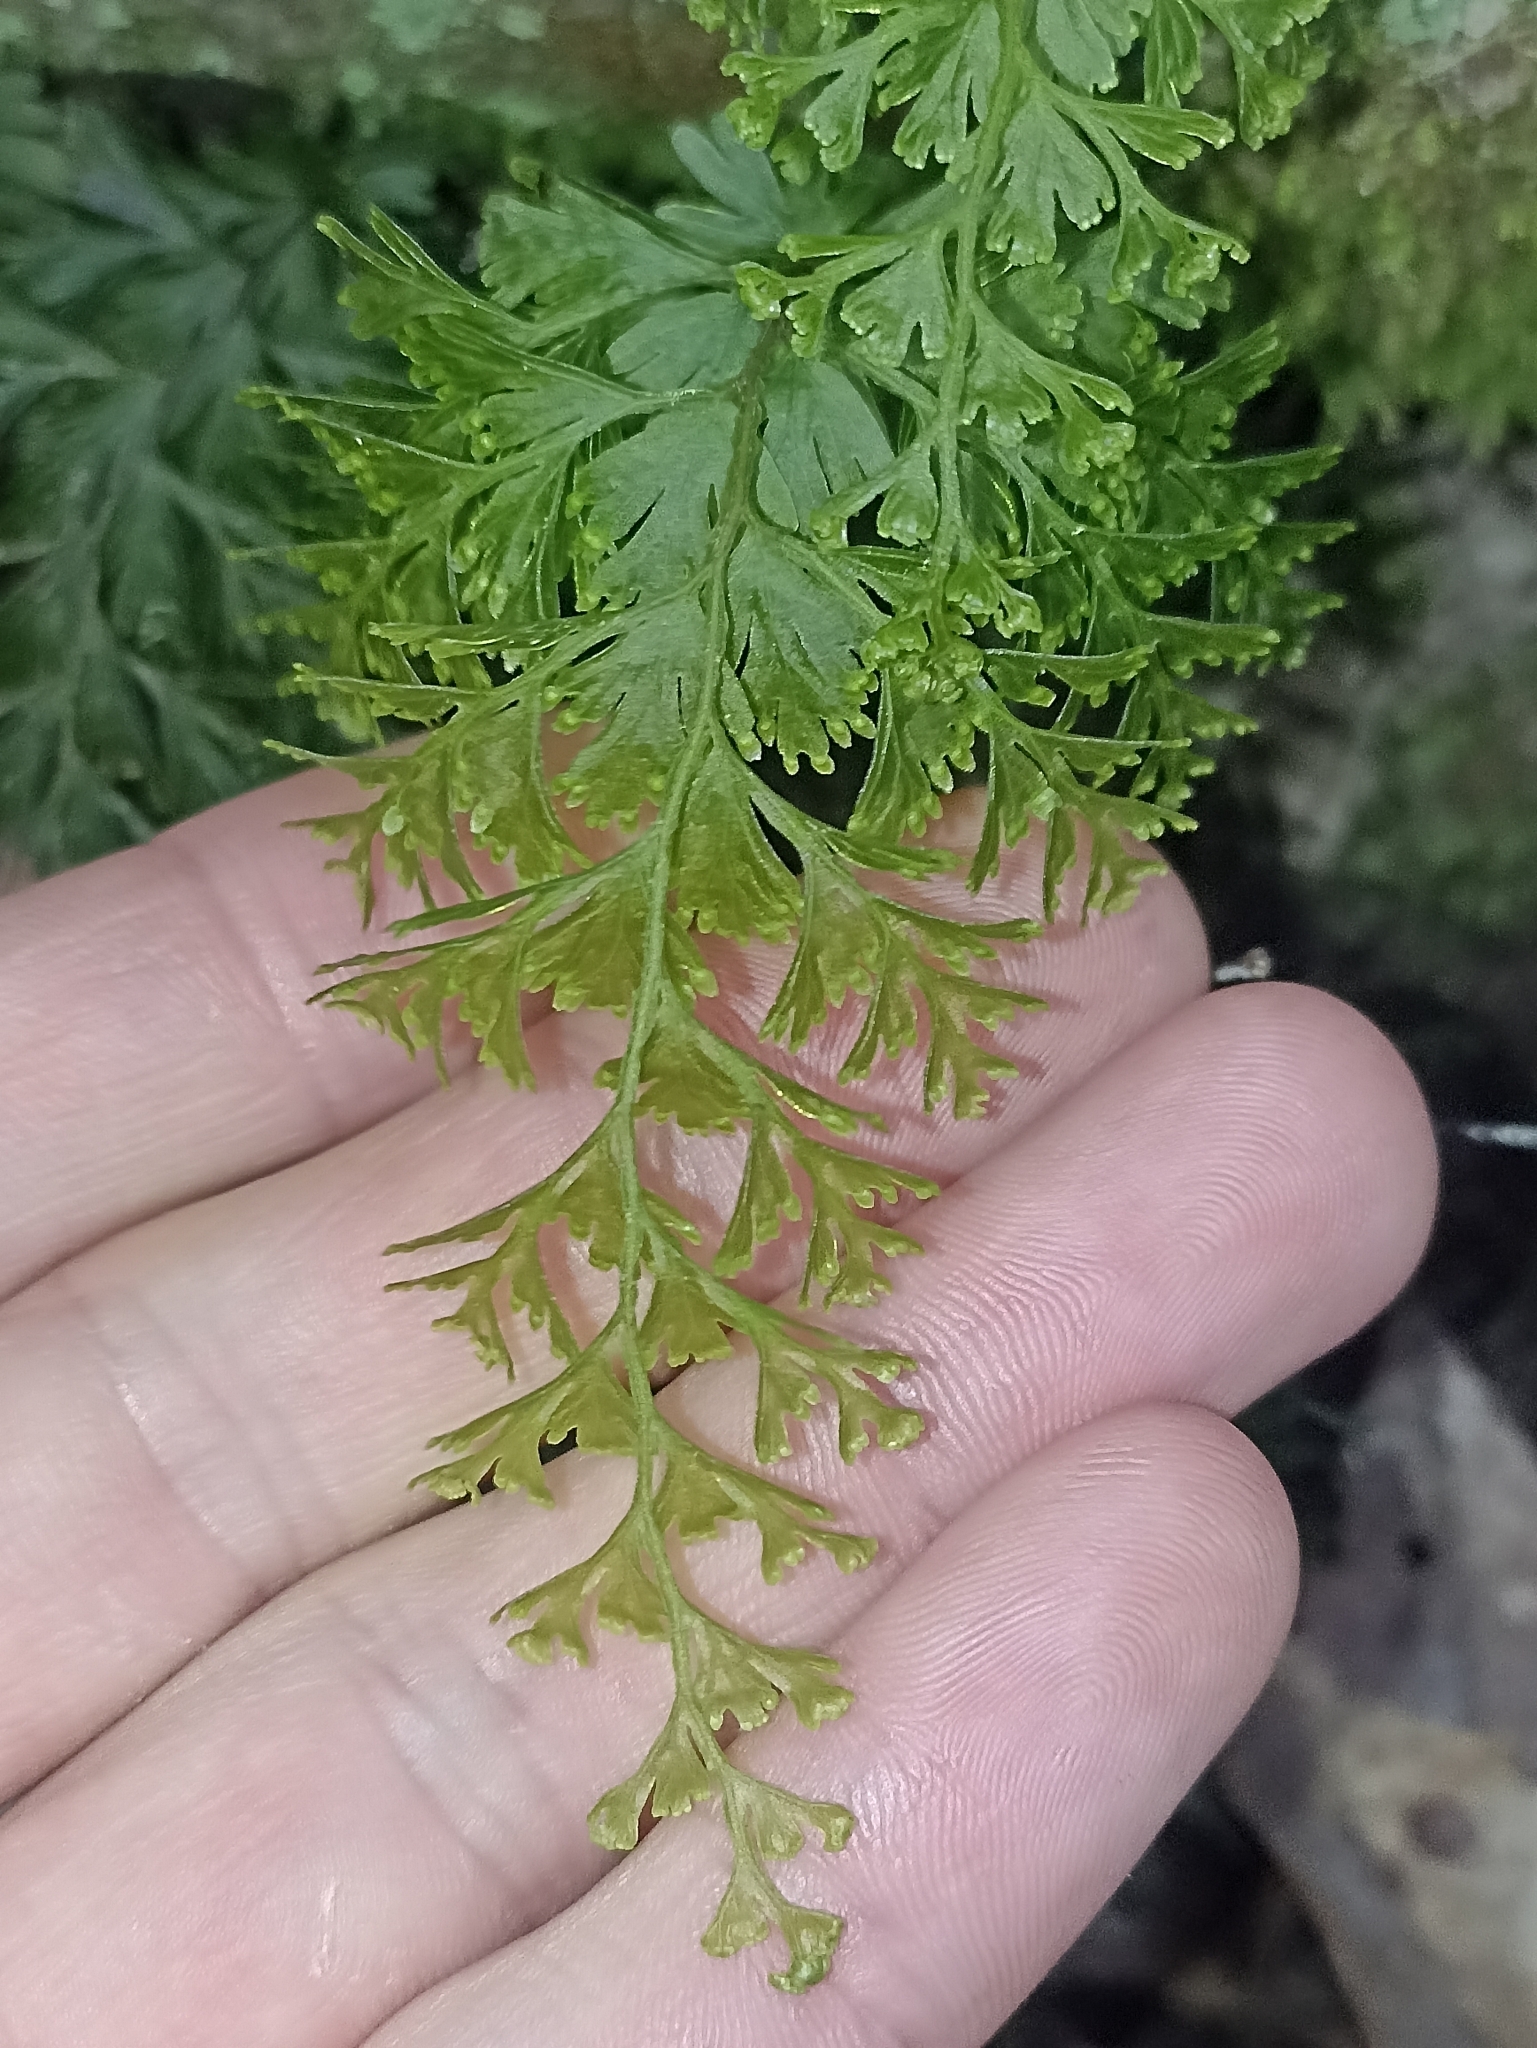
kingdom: Plantae
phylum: Tracheophyta
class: Polypodiopsida
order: Hymenophyllales
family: Hymenophyllaceae
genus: Hymenophyllum
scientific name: Hymenophyllum demissum
